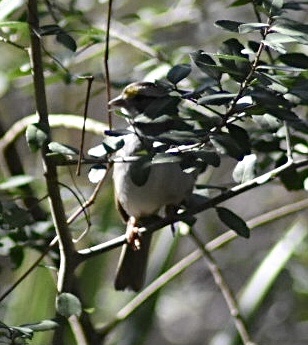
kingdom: Animalia
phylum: Chordata
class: Aves
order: Passeriformes
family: Passerellidae
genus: Zonotrichia
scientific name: Zonotrichia albicollis
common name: White-throated sparrow
